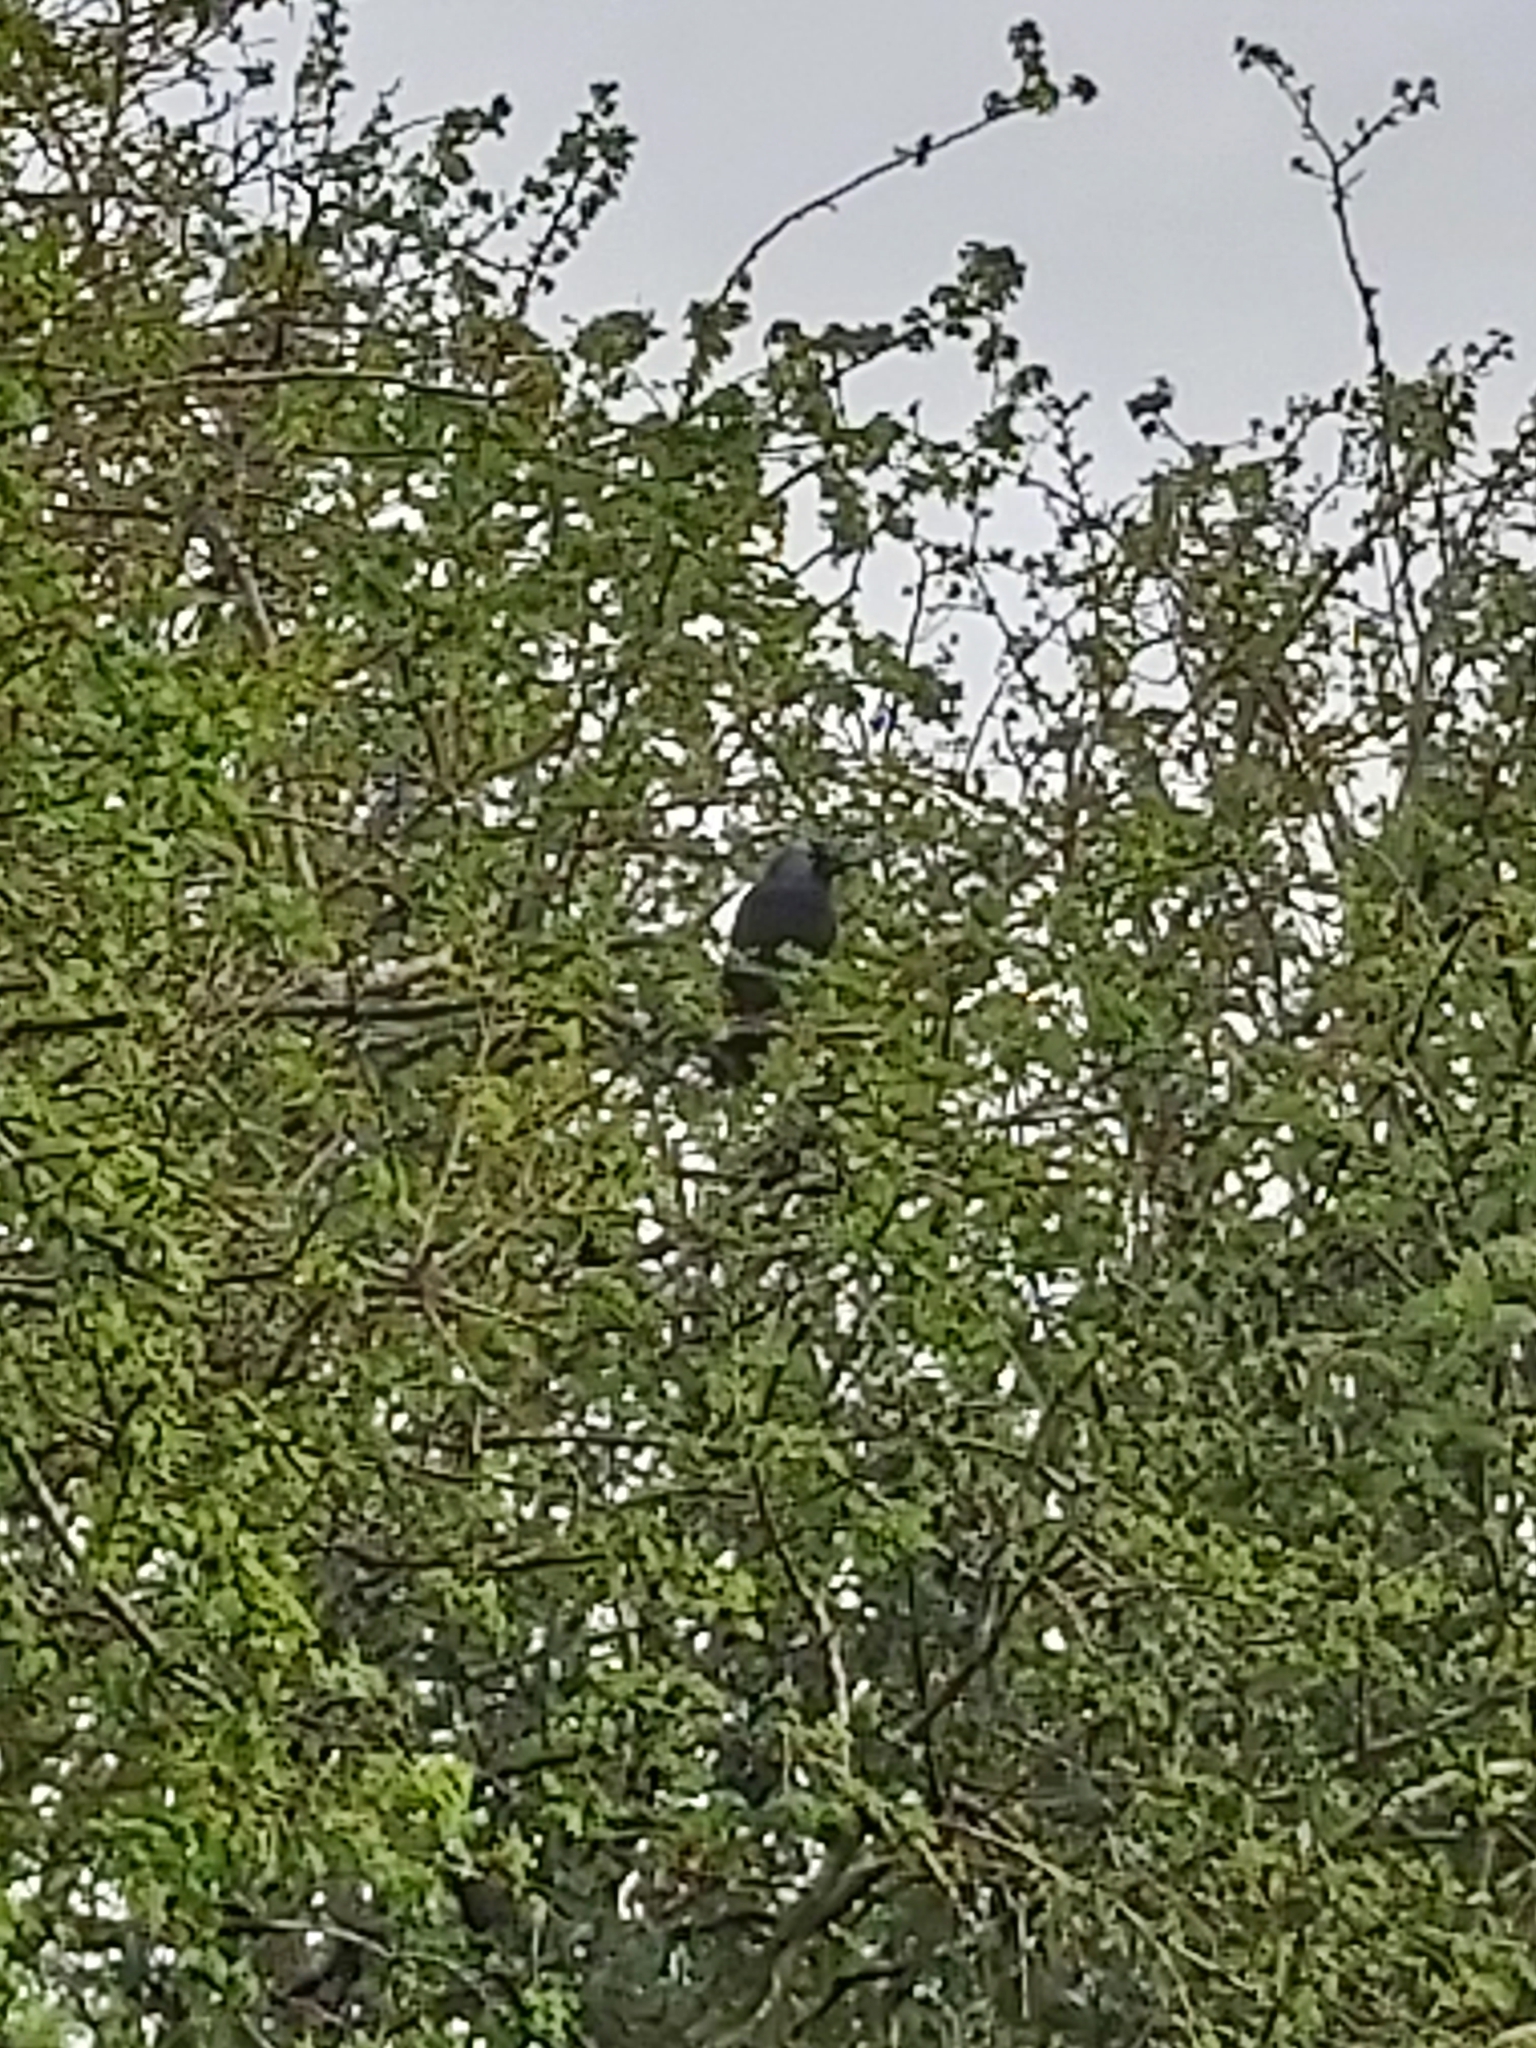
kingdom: Animalia
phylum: Chordata
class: Aves
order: Passeriformes
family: Corvidae
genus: Coloeus
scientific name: Coloeus monedula
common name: Western jackdaw
